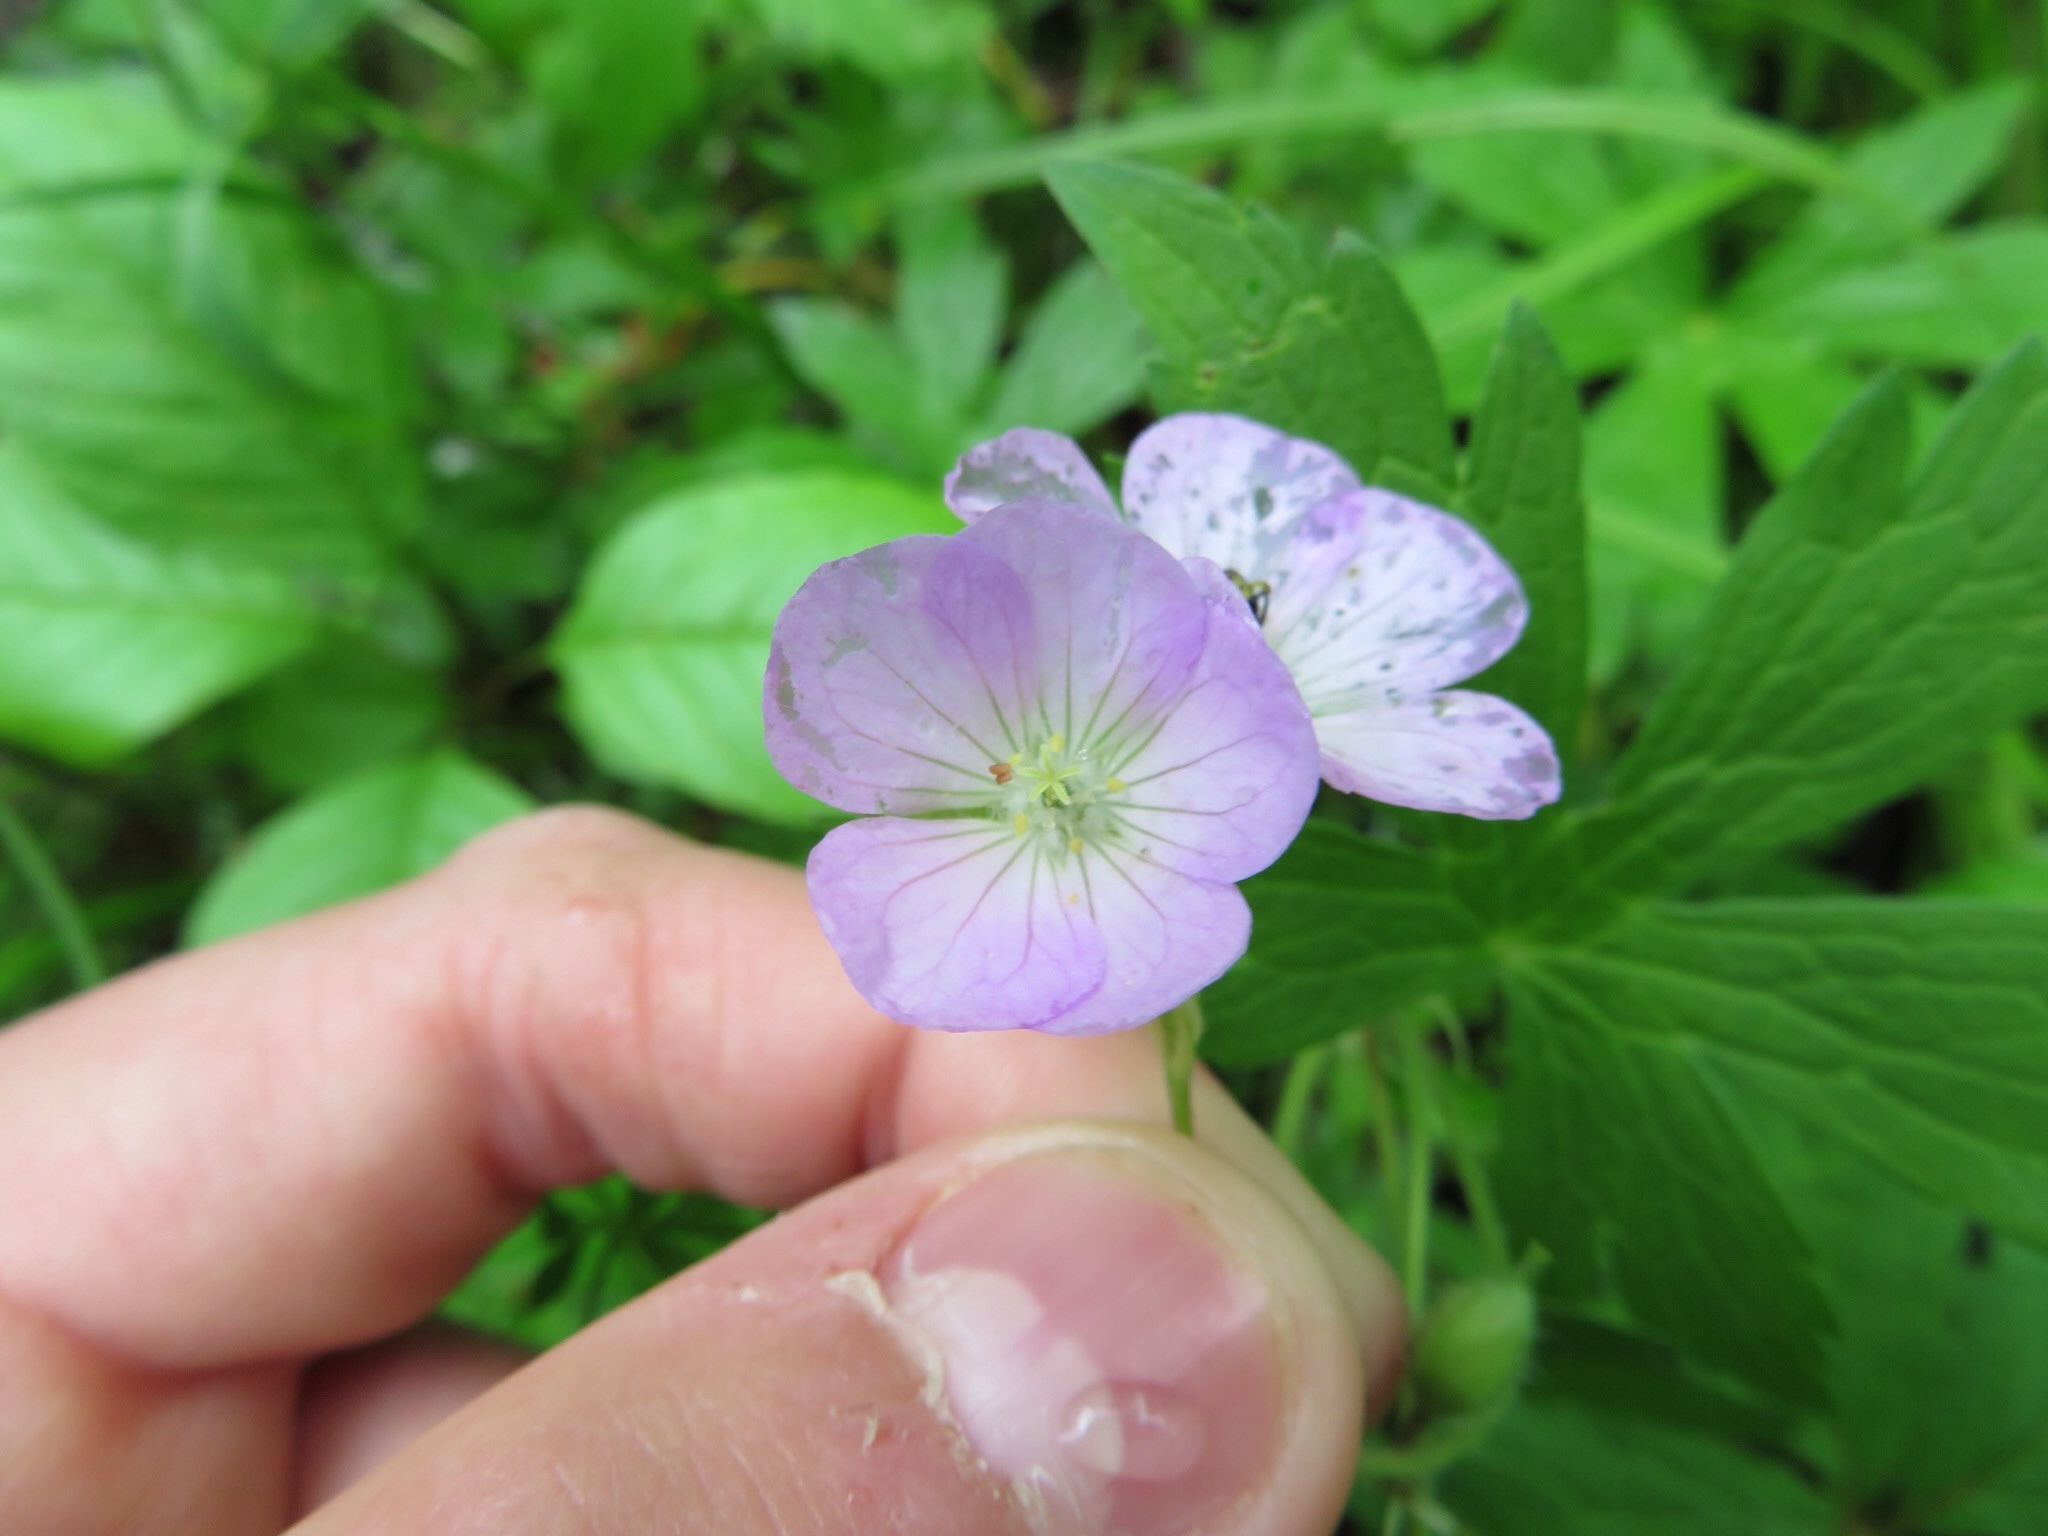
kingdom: Plantae
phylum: Tracheophyta
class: Magnoliopsida
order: Geraniales
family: Geraniaceae
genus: Geranium
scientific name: Geranium maculatum
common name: Spotted geranium
